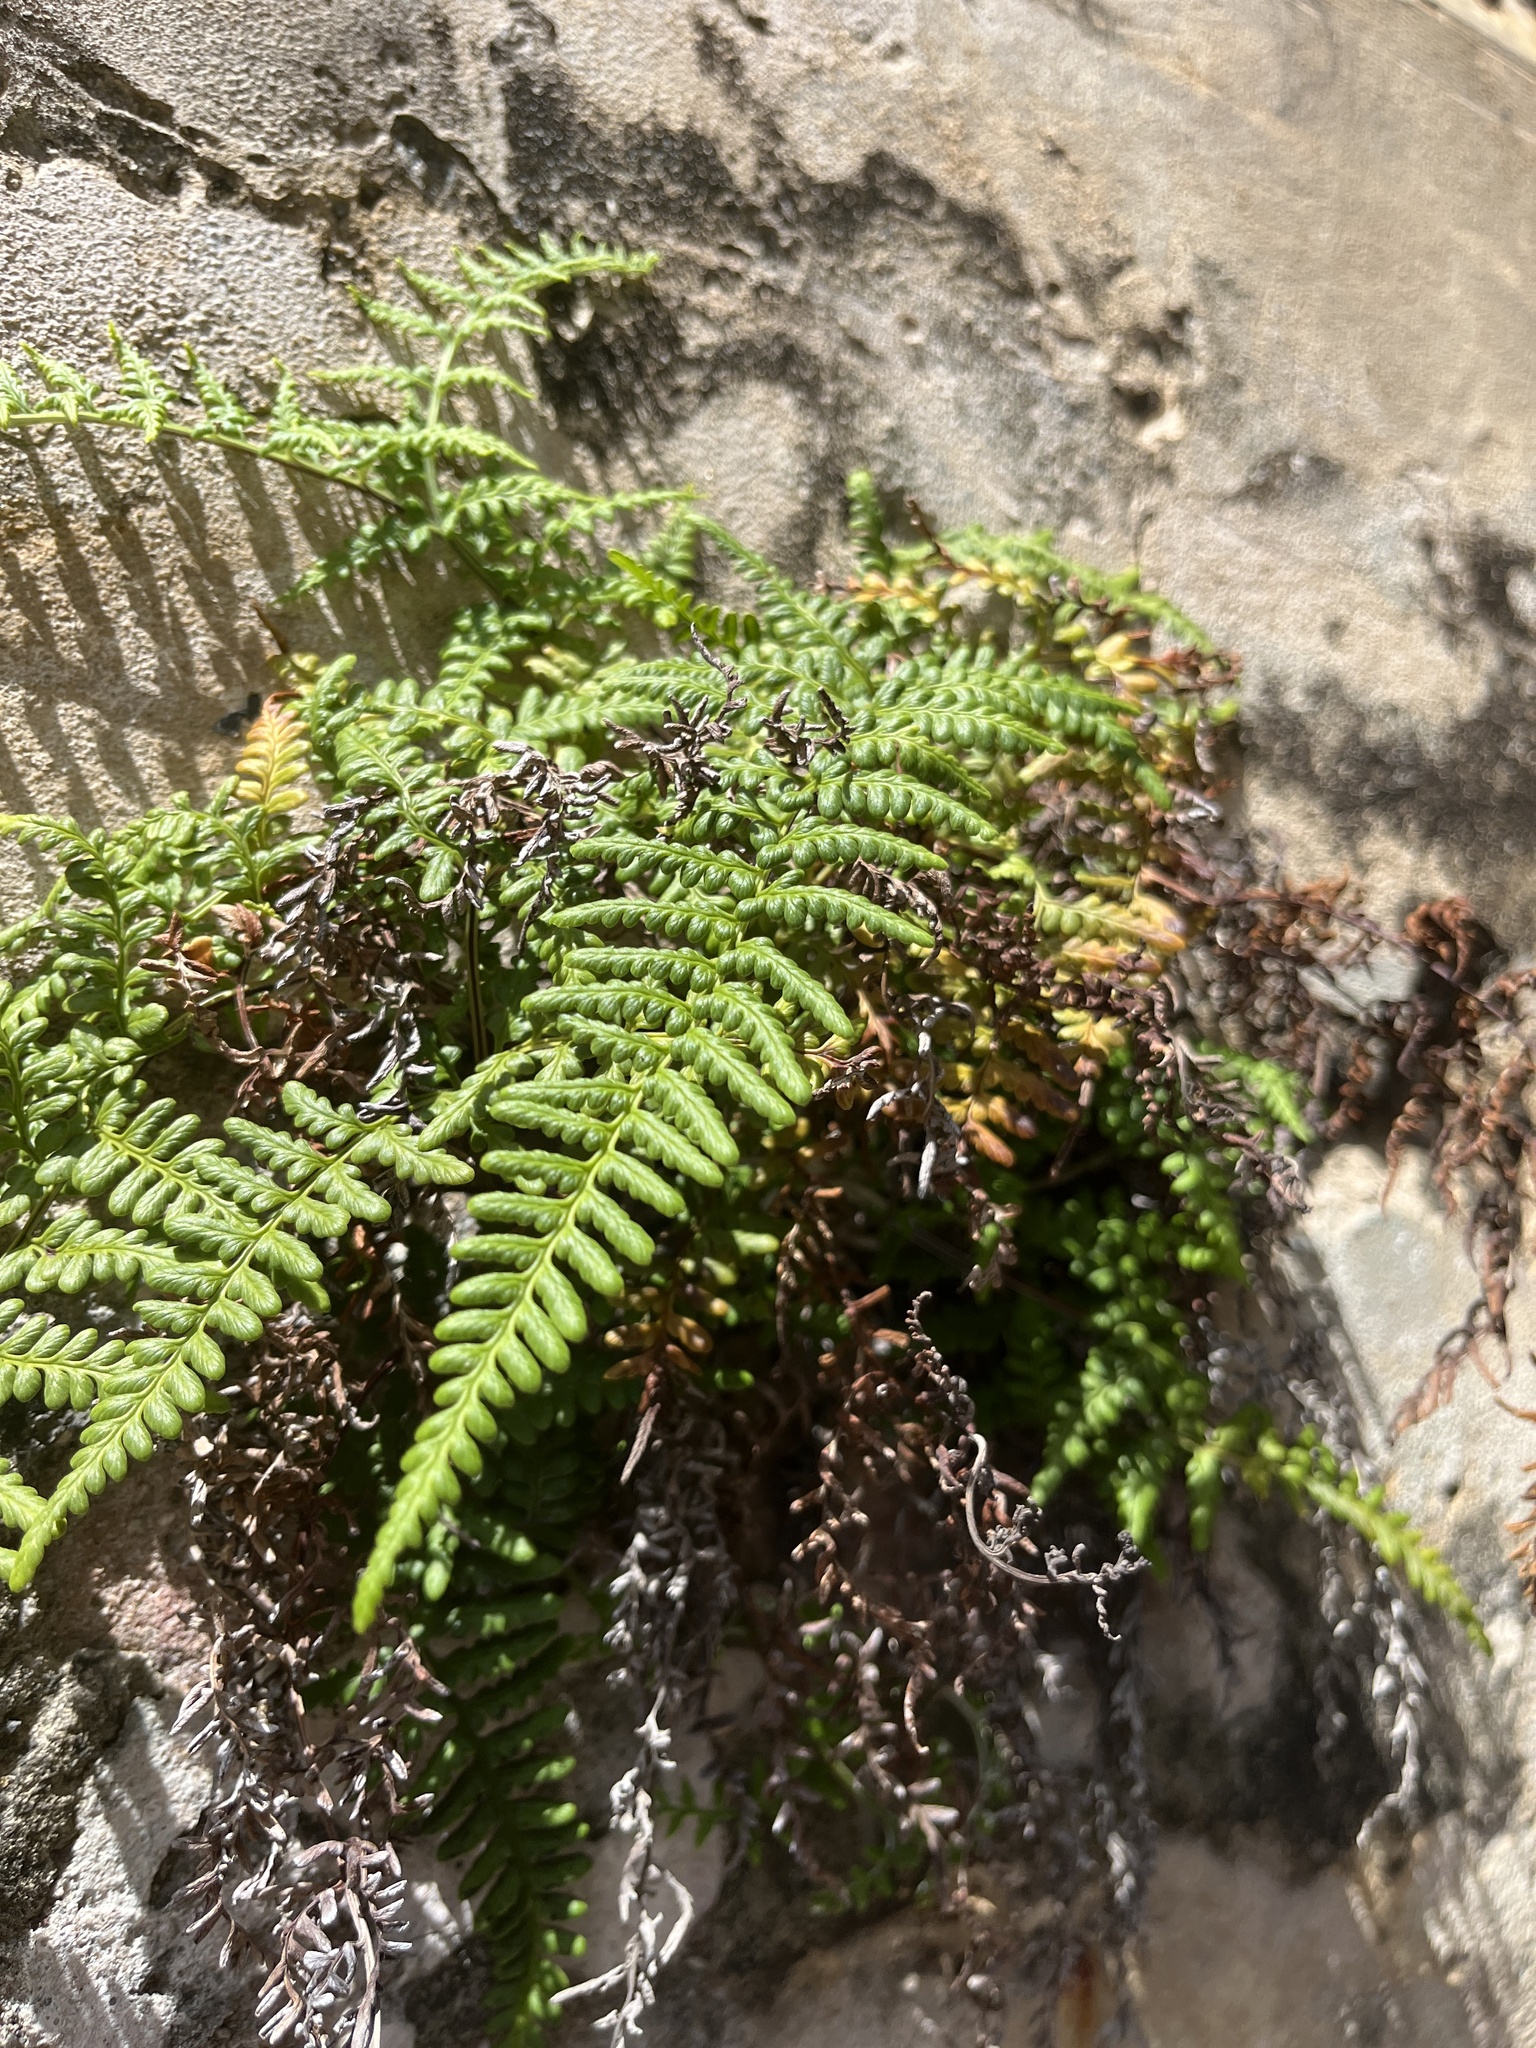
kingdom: Plantae
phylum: Tracheophyta
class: Polypodiopsida
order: Polypodiales
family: Pteridaceae
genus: Pityrogramma
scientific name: Pityrogramma chrysophylla
